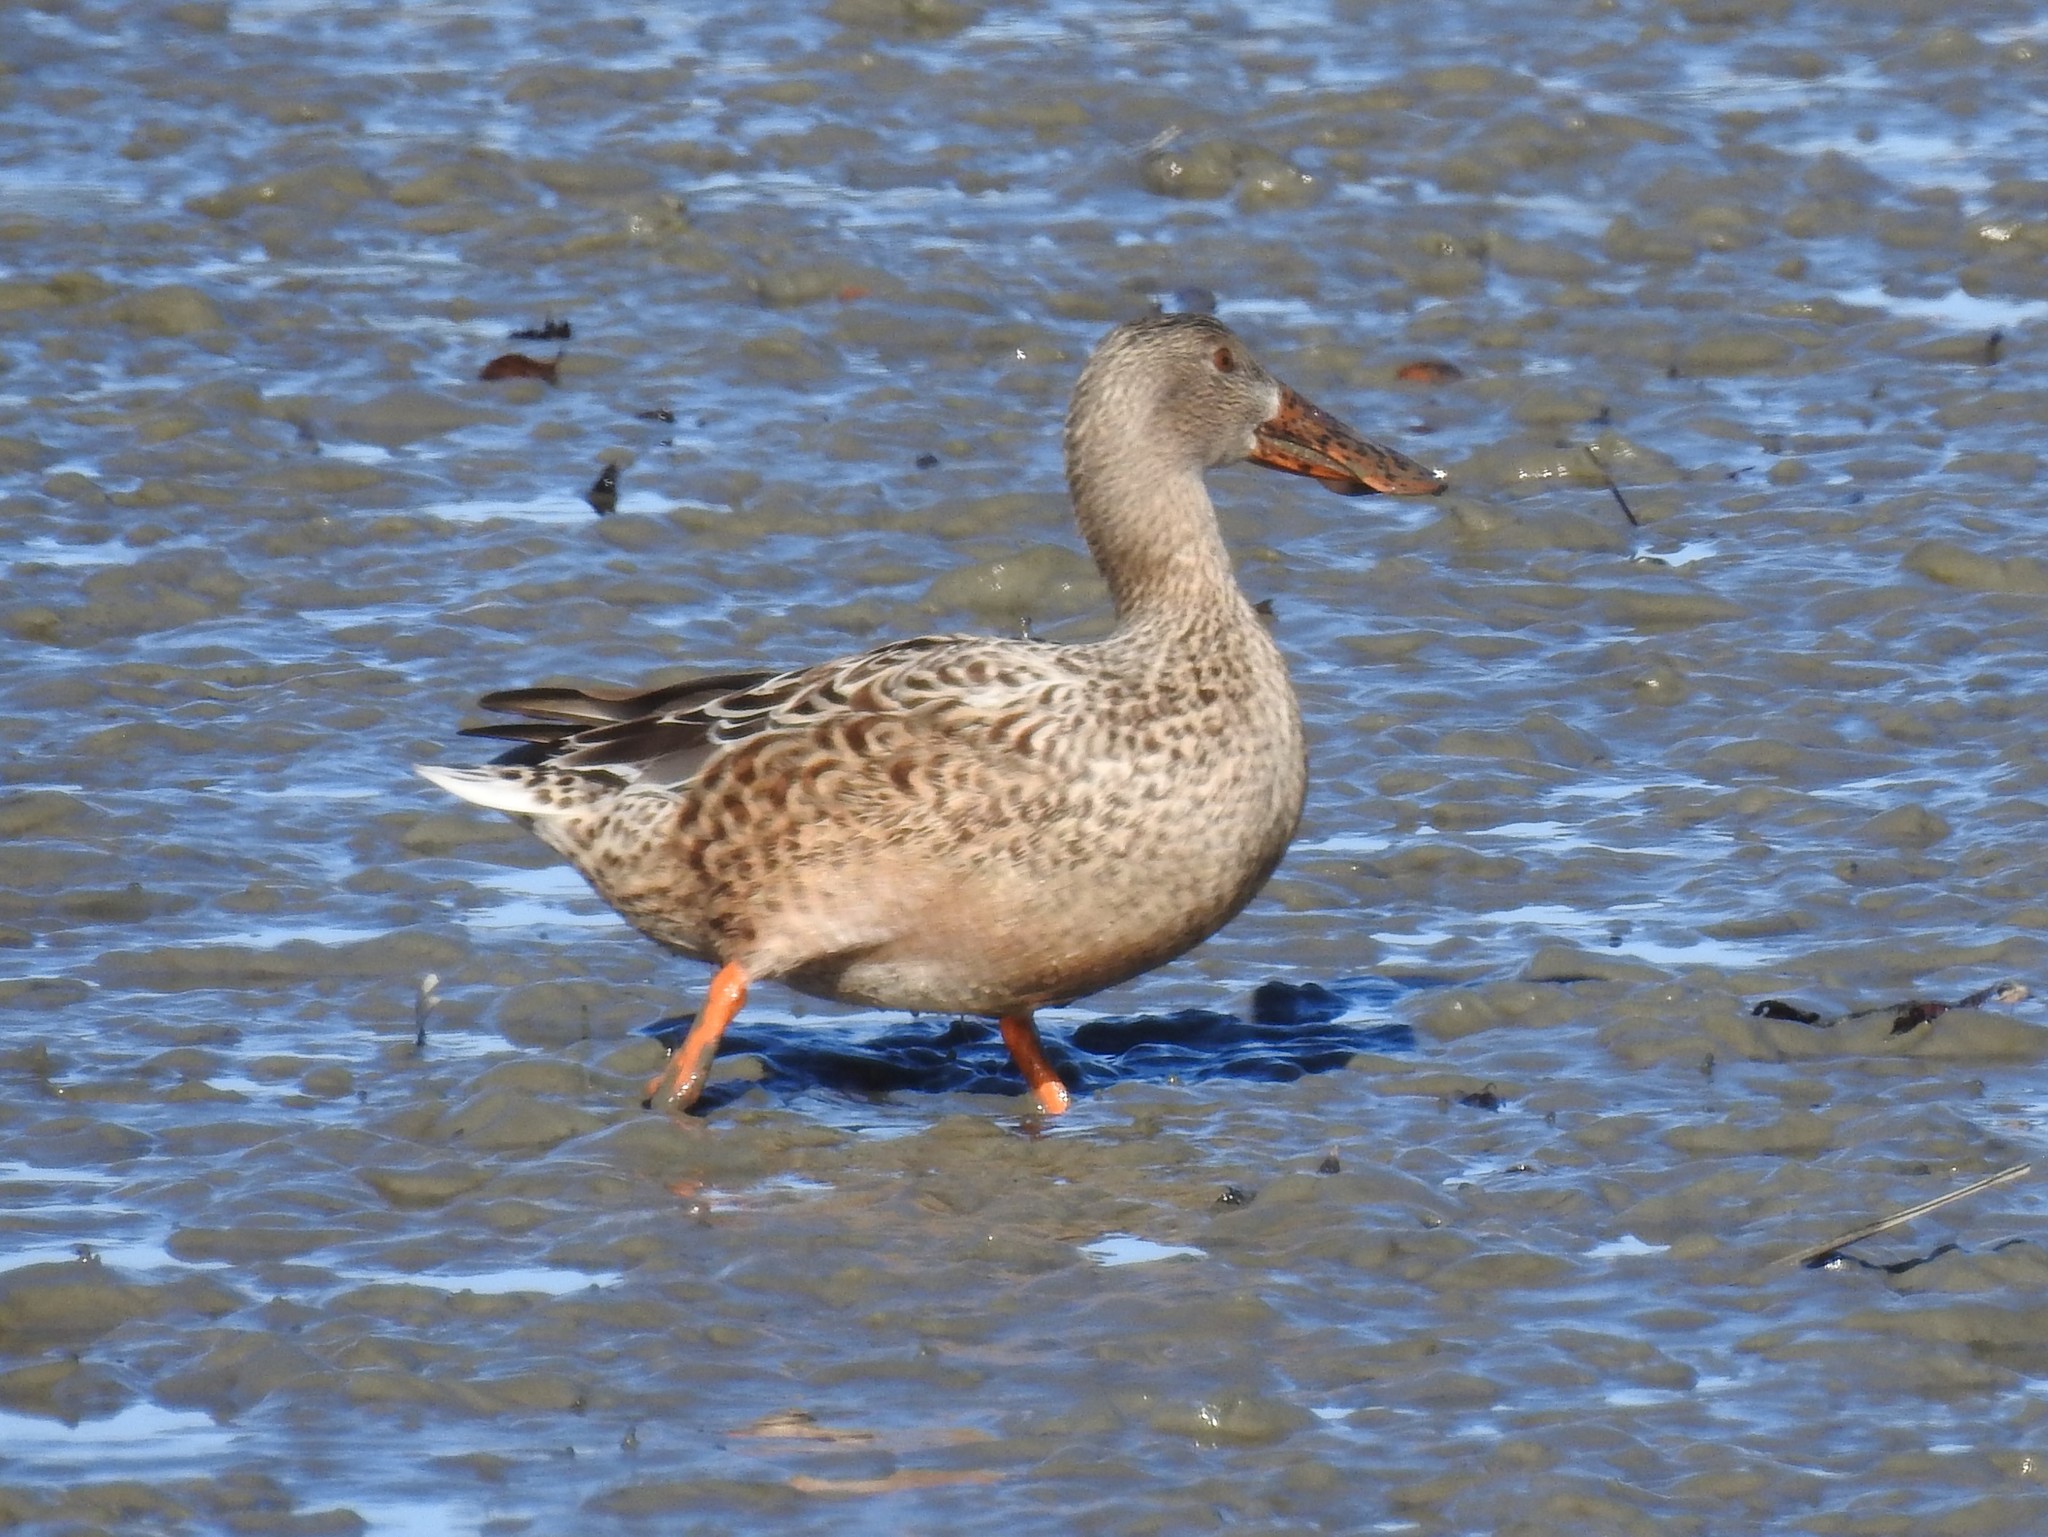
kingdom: Animalia
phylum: Chordata
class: Aves
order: Anseriformes
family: Anatidae
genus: Spatula
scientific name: Spatula clypeata
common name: Northern shoveler
